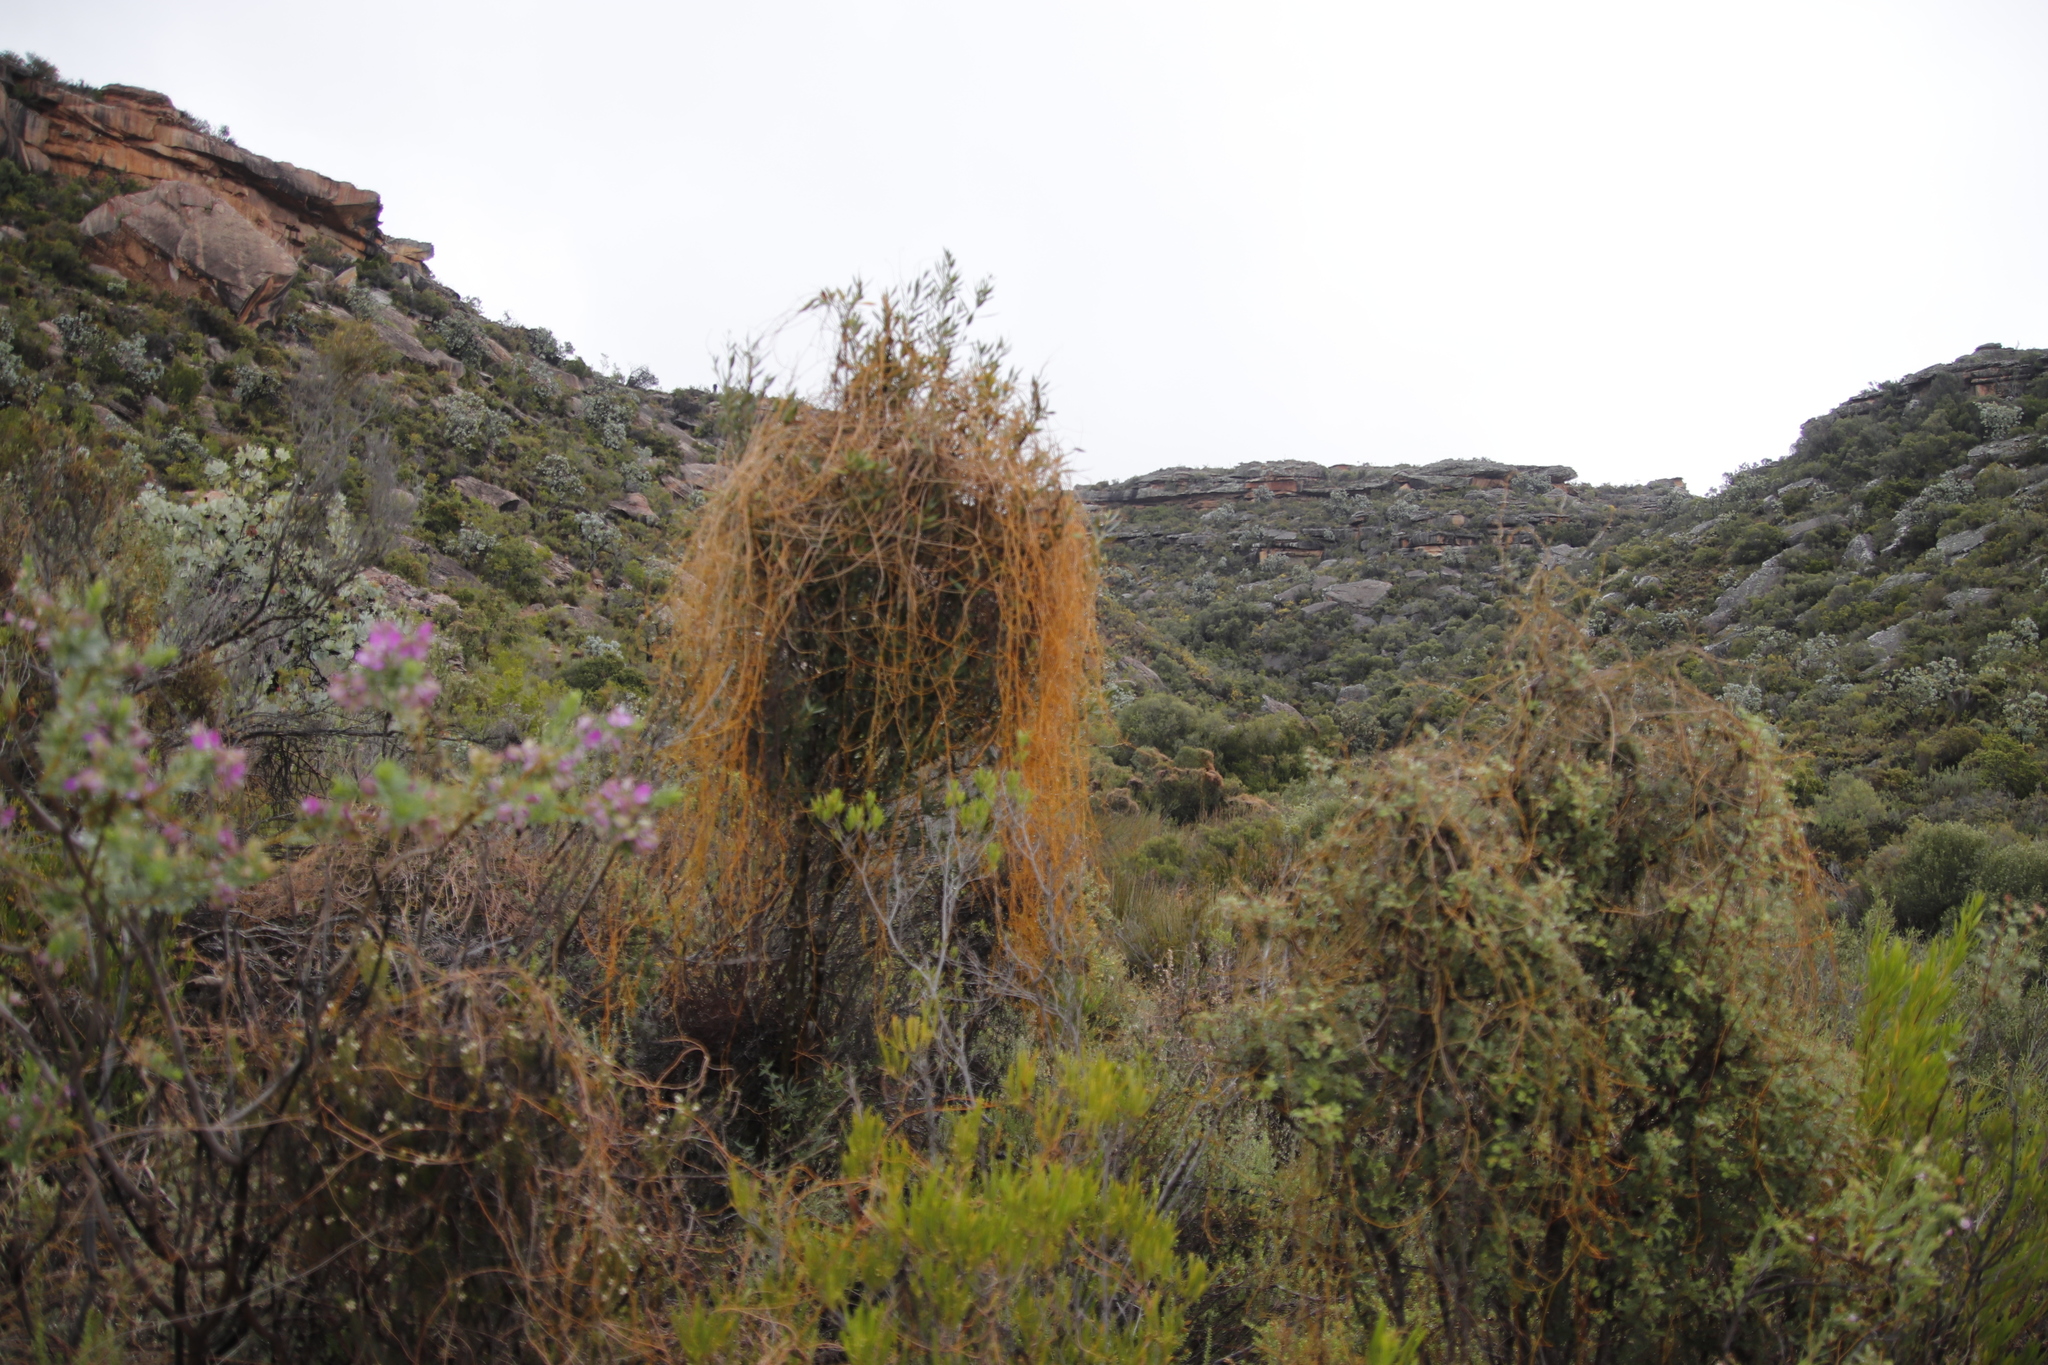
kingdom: Plantae
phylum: Tracheophyta
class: Magnoliopsida
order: Laurales
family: Lauraceae
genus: Cassytha
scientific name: Cassytha ciliolata
